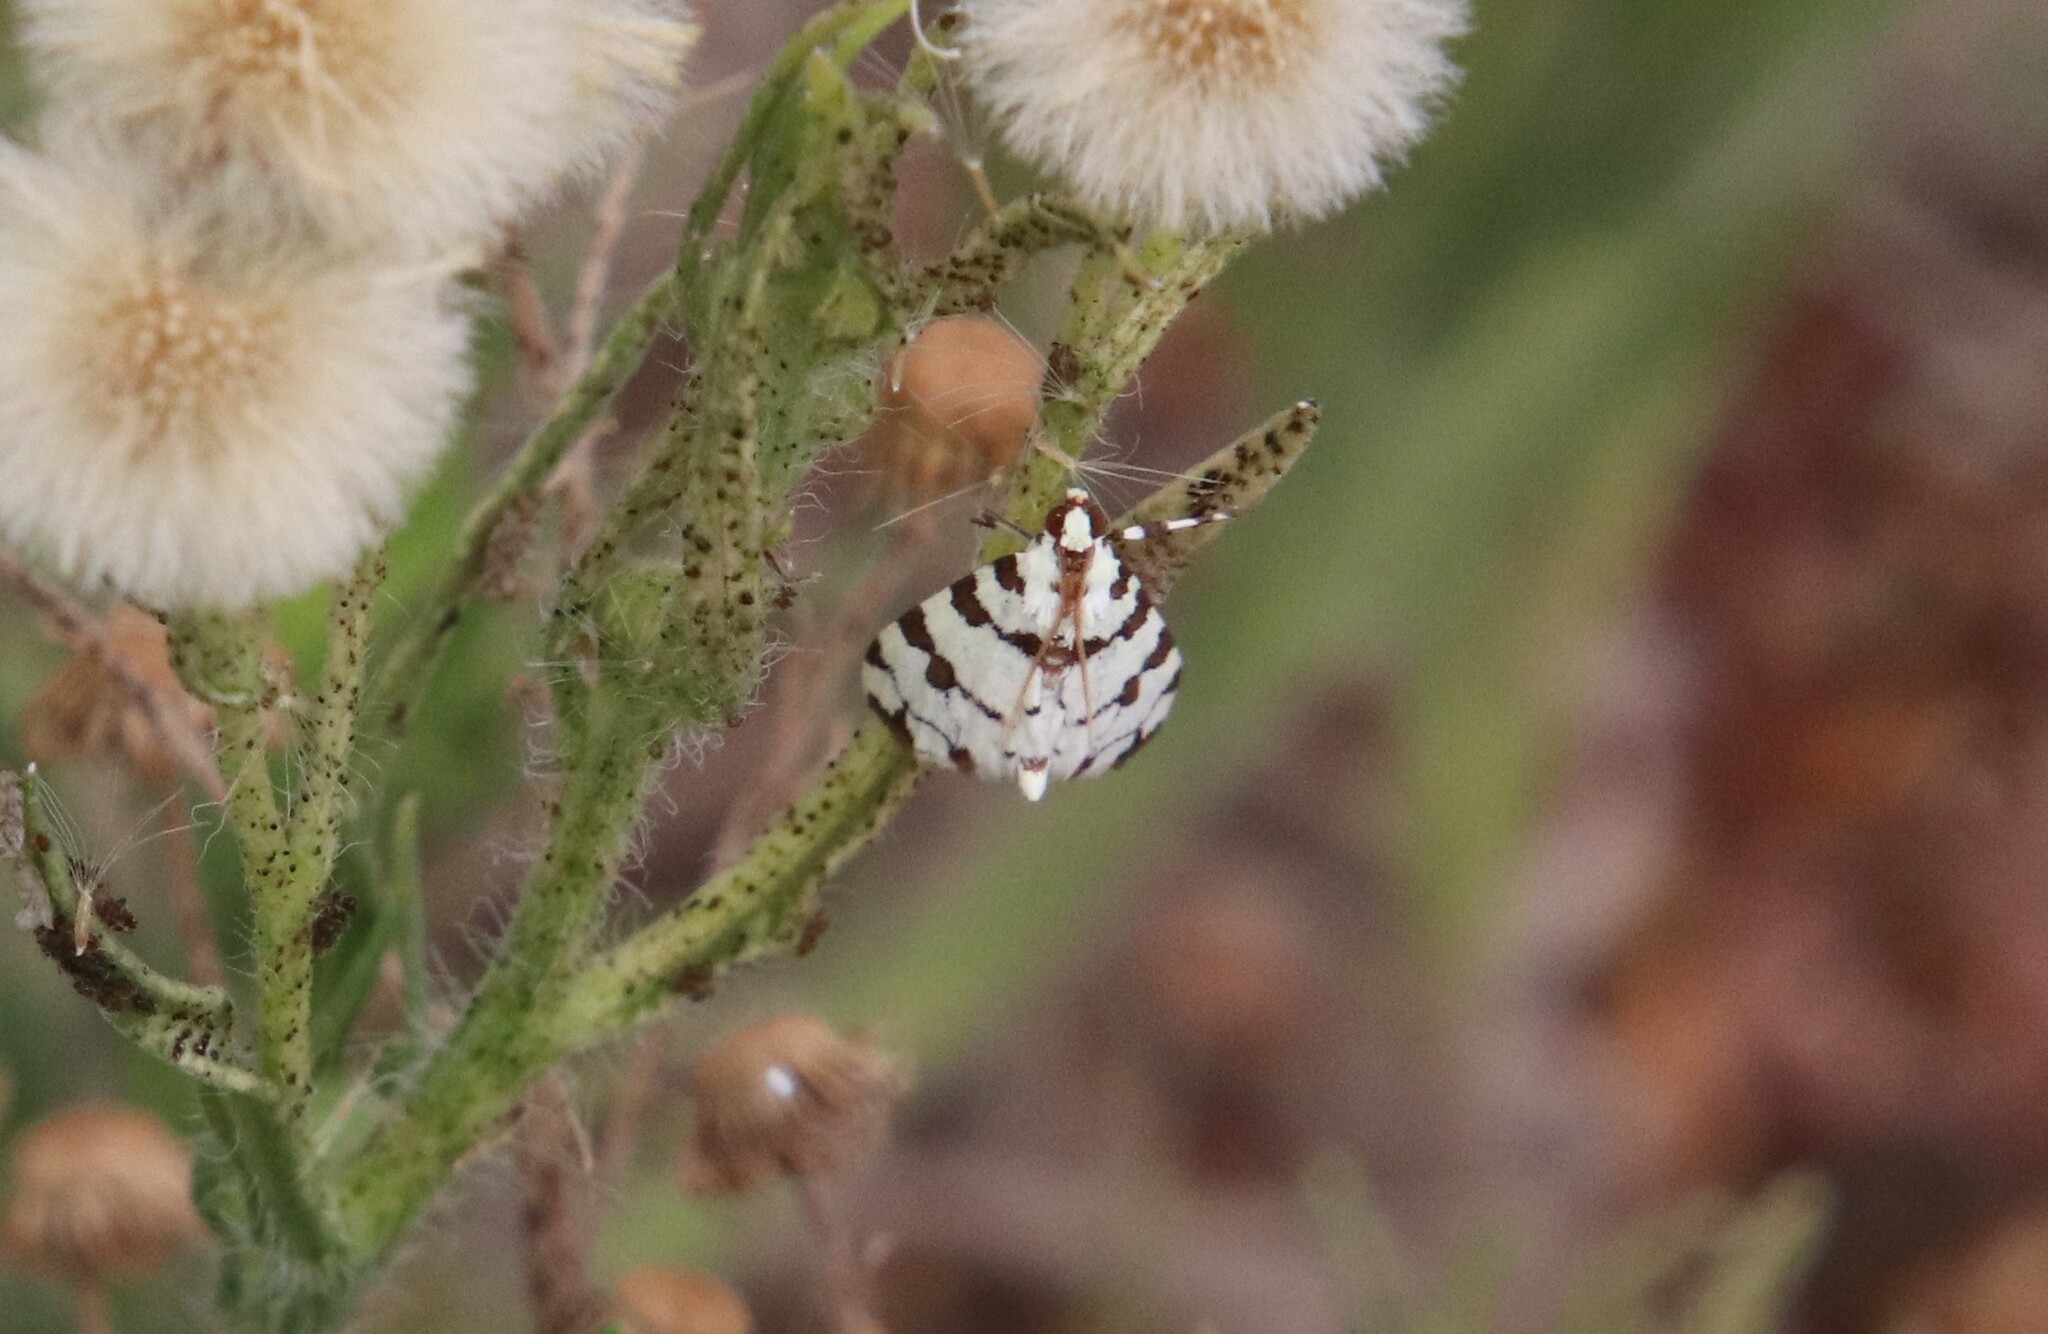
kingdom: Animalia
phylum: Arthropoda
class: Insecta
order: Lepidoptera
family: Crambidae
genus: Conchylodes
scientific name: Conchylodes
